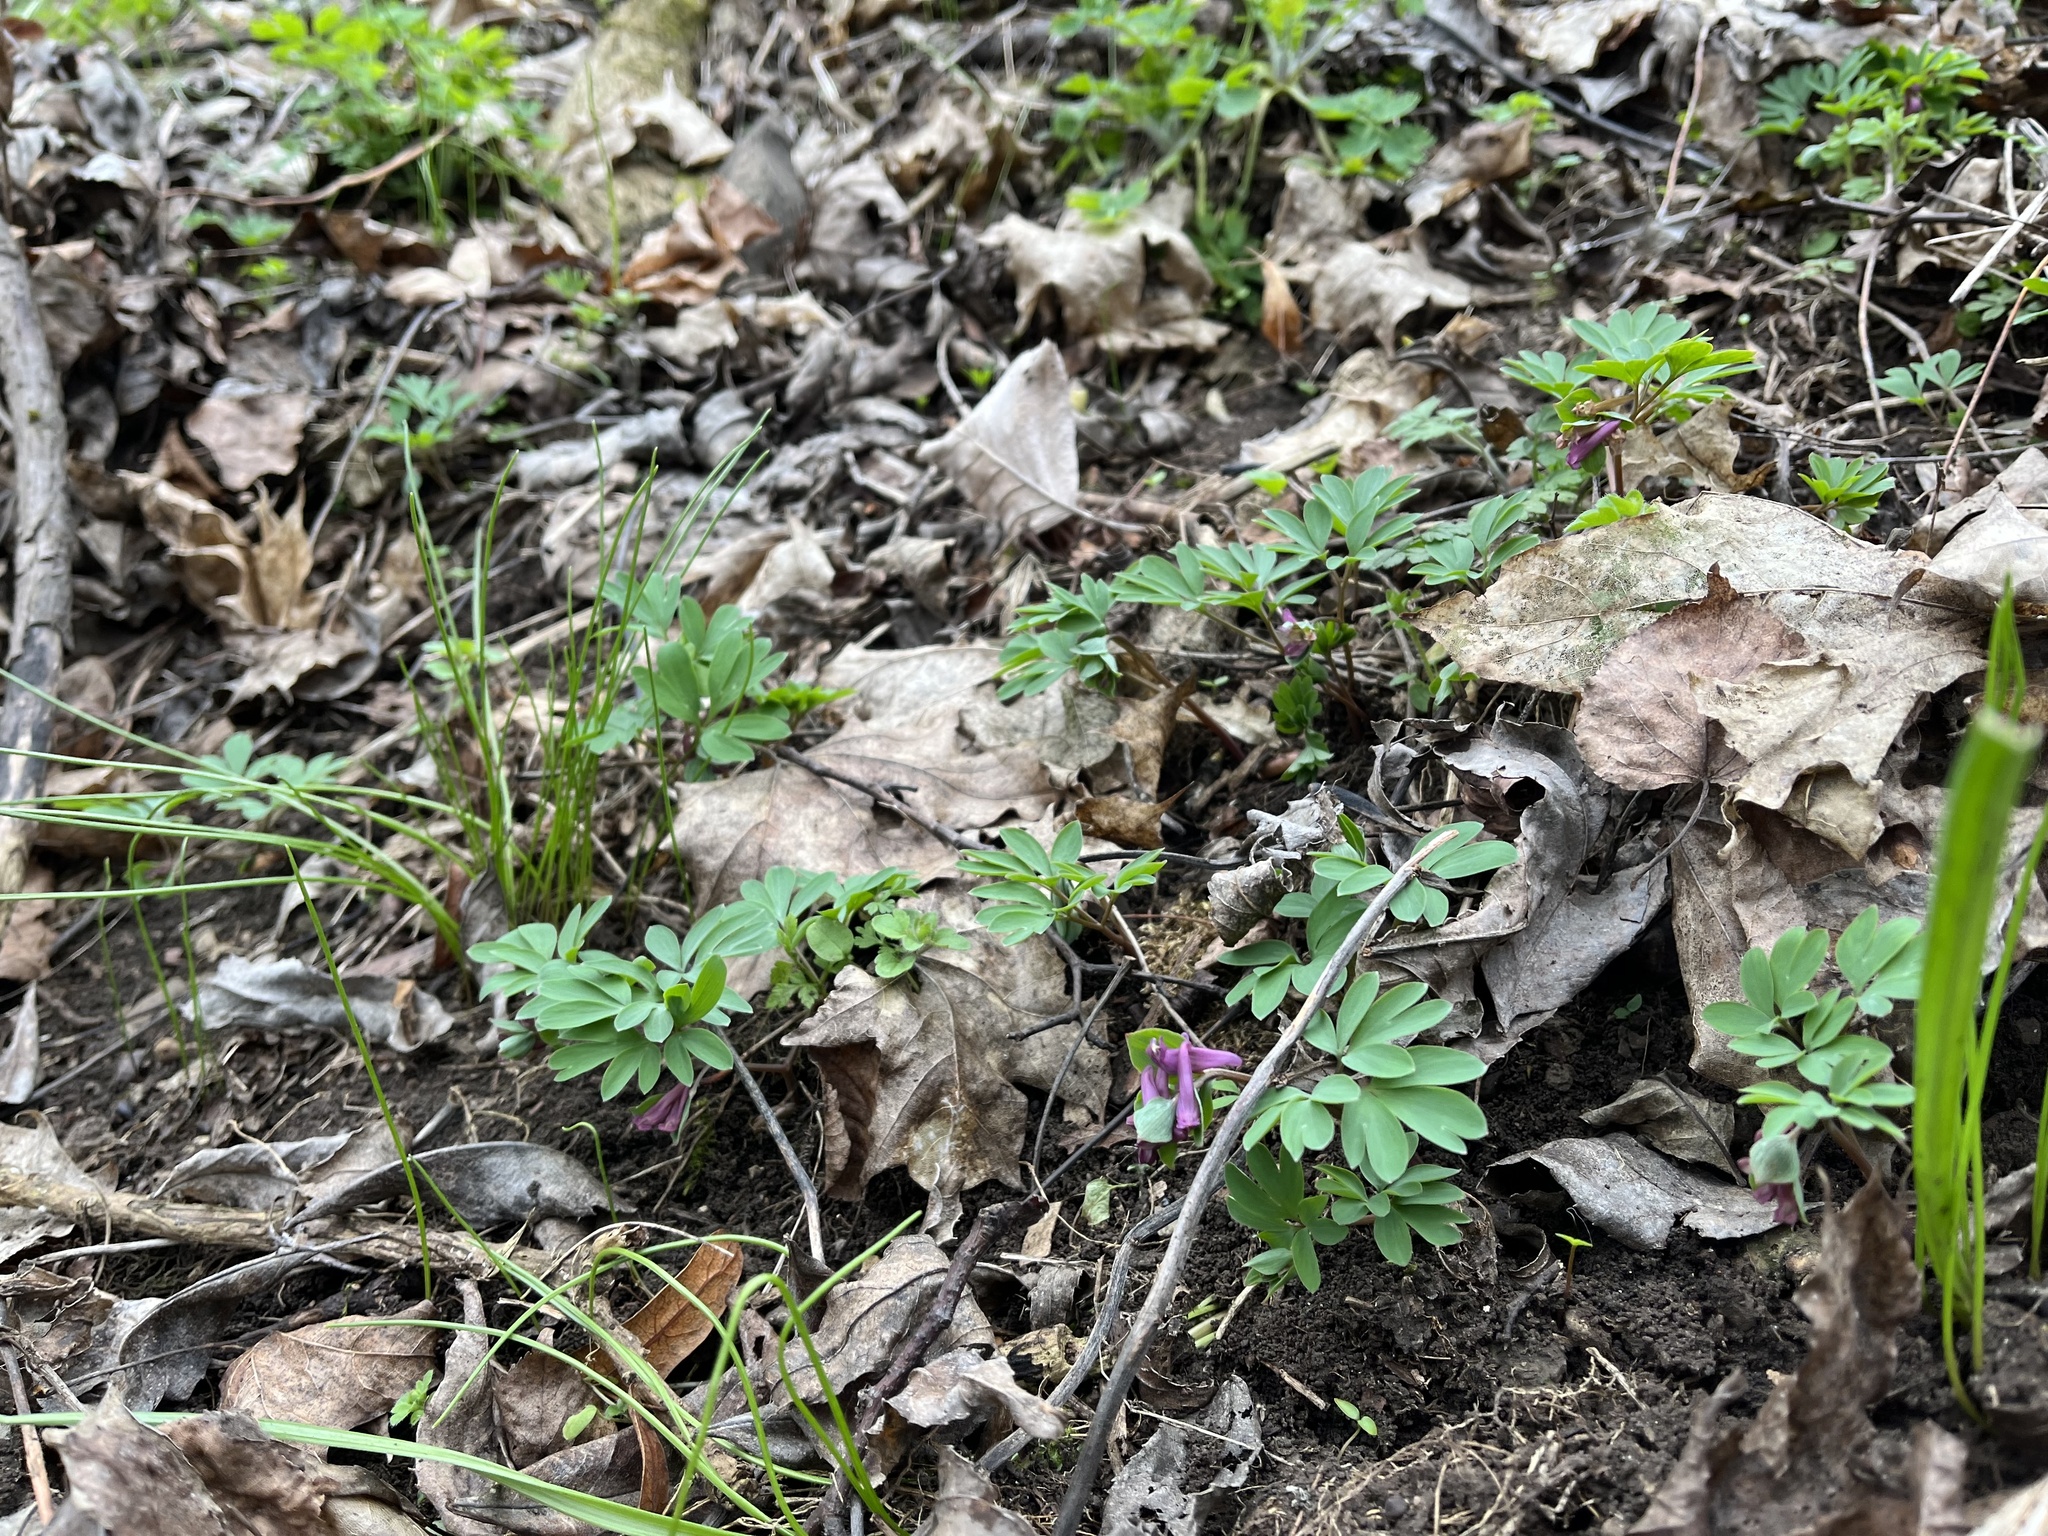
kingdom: Plantae
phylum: Tracheophyta
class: Magnoliopsida
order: Ranunculales
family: Papaveraceae
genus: Corydalis
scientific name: Corydalis intermedia
